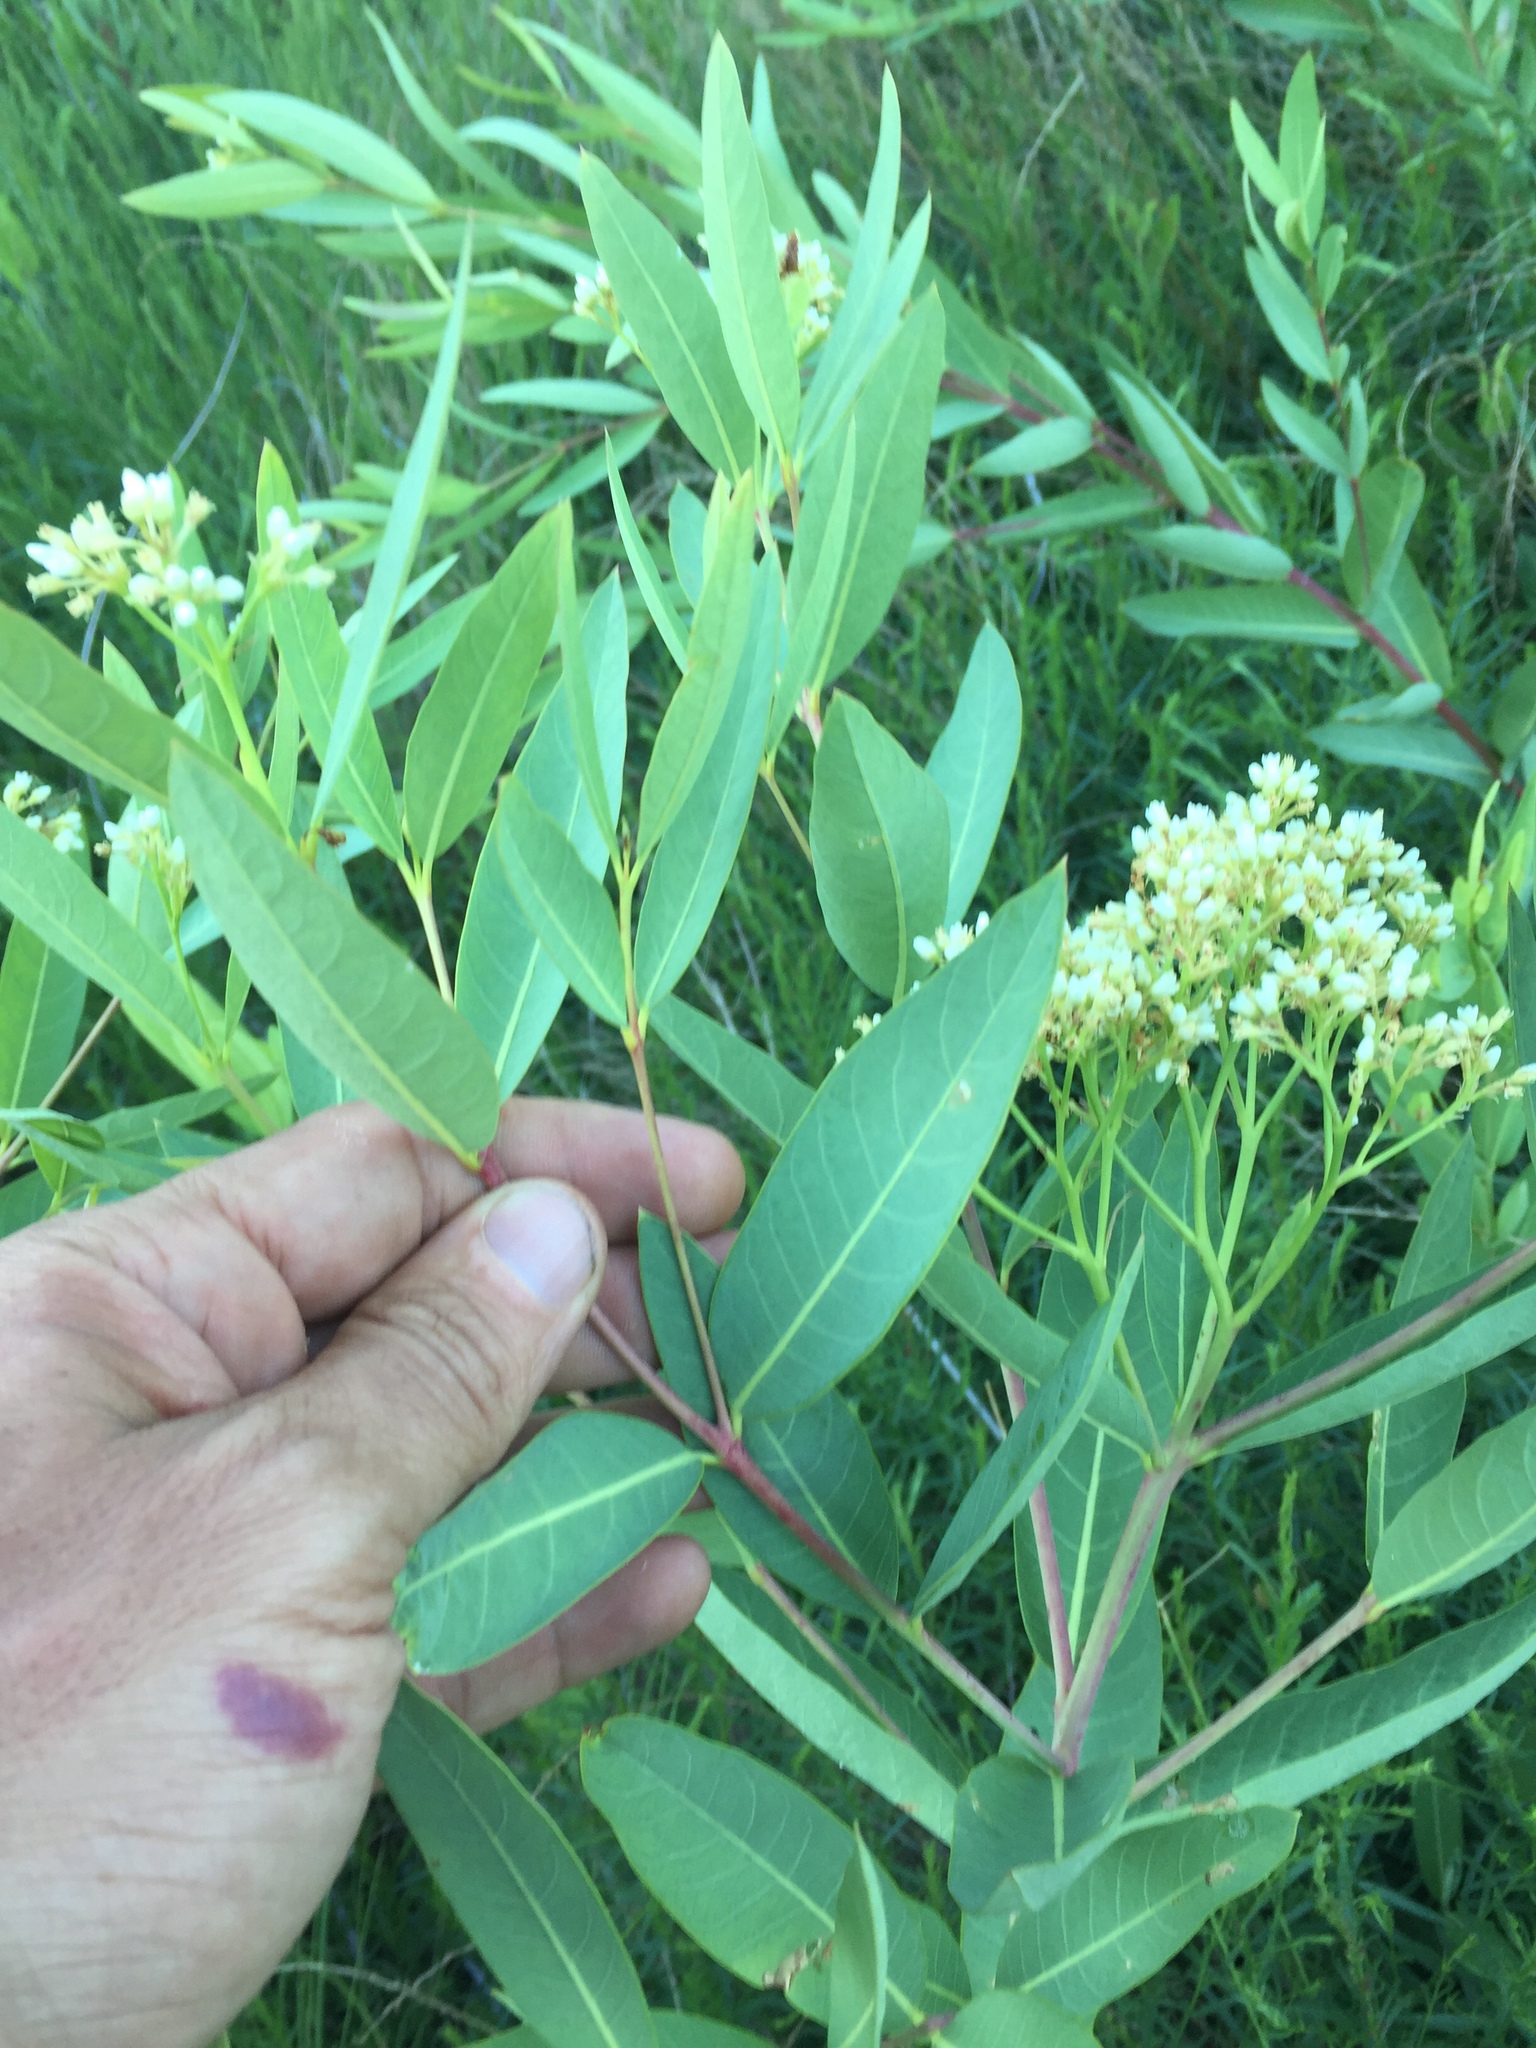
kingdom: Plantae
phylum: Tracheophyta
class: Magnoliopsida
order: Gentianales
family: Apocynaceae
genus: Apocynum
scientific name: Apocynum cannabinum
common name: Hemp dogbane
